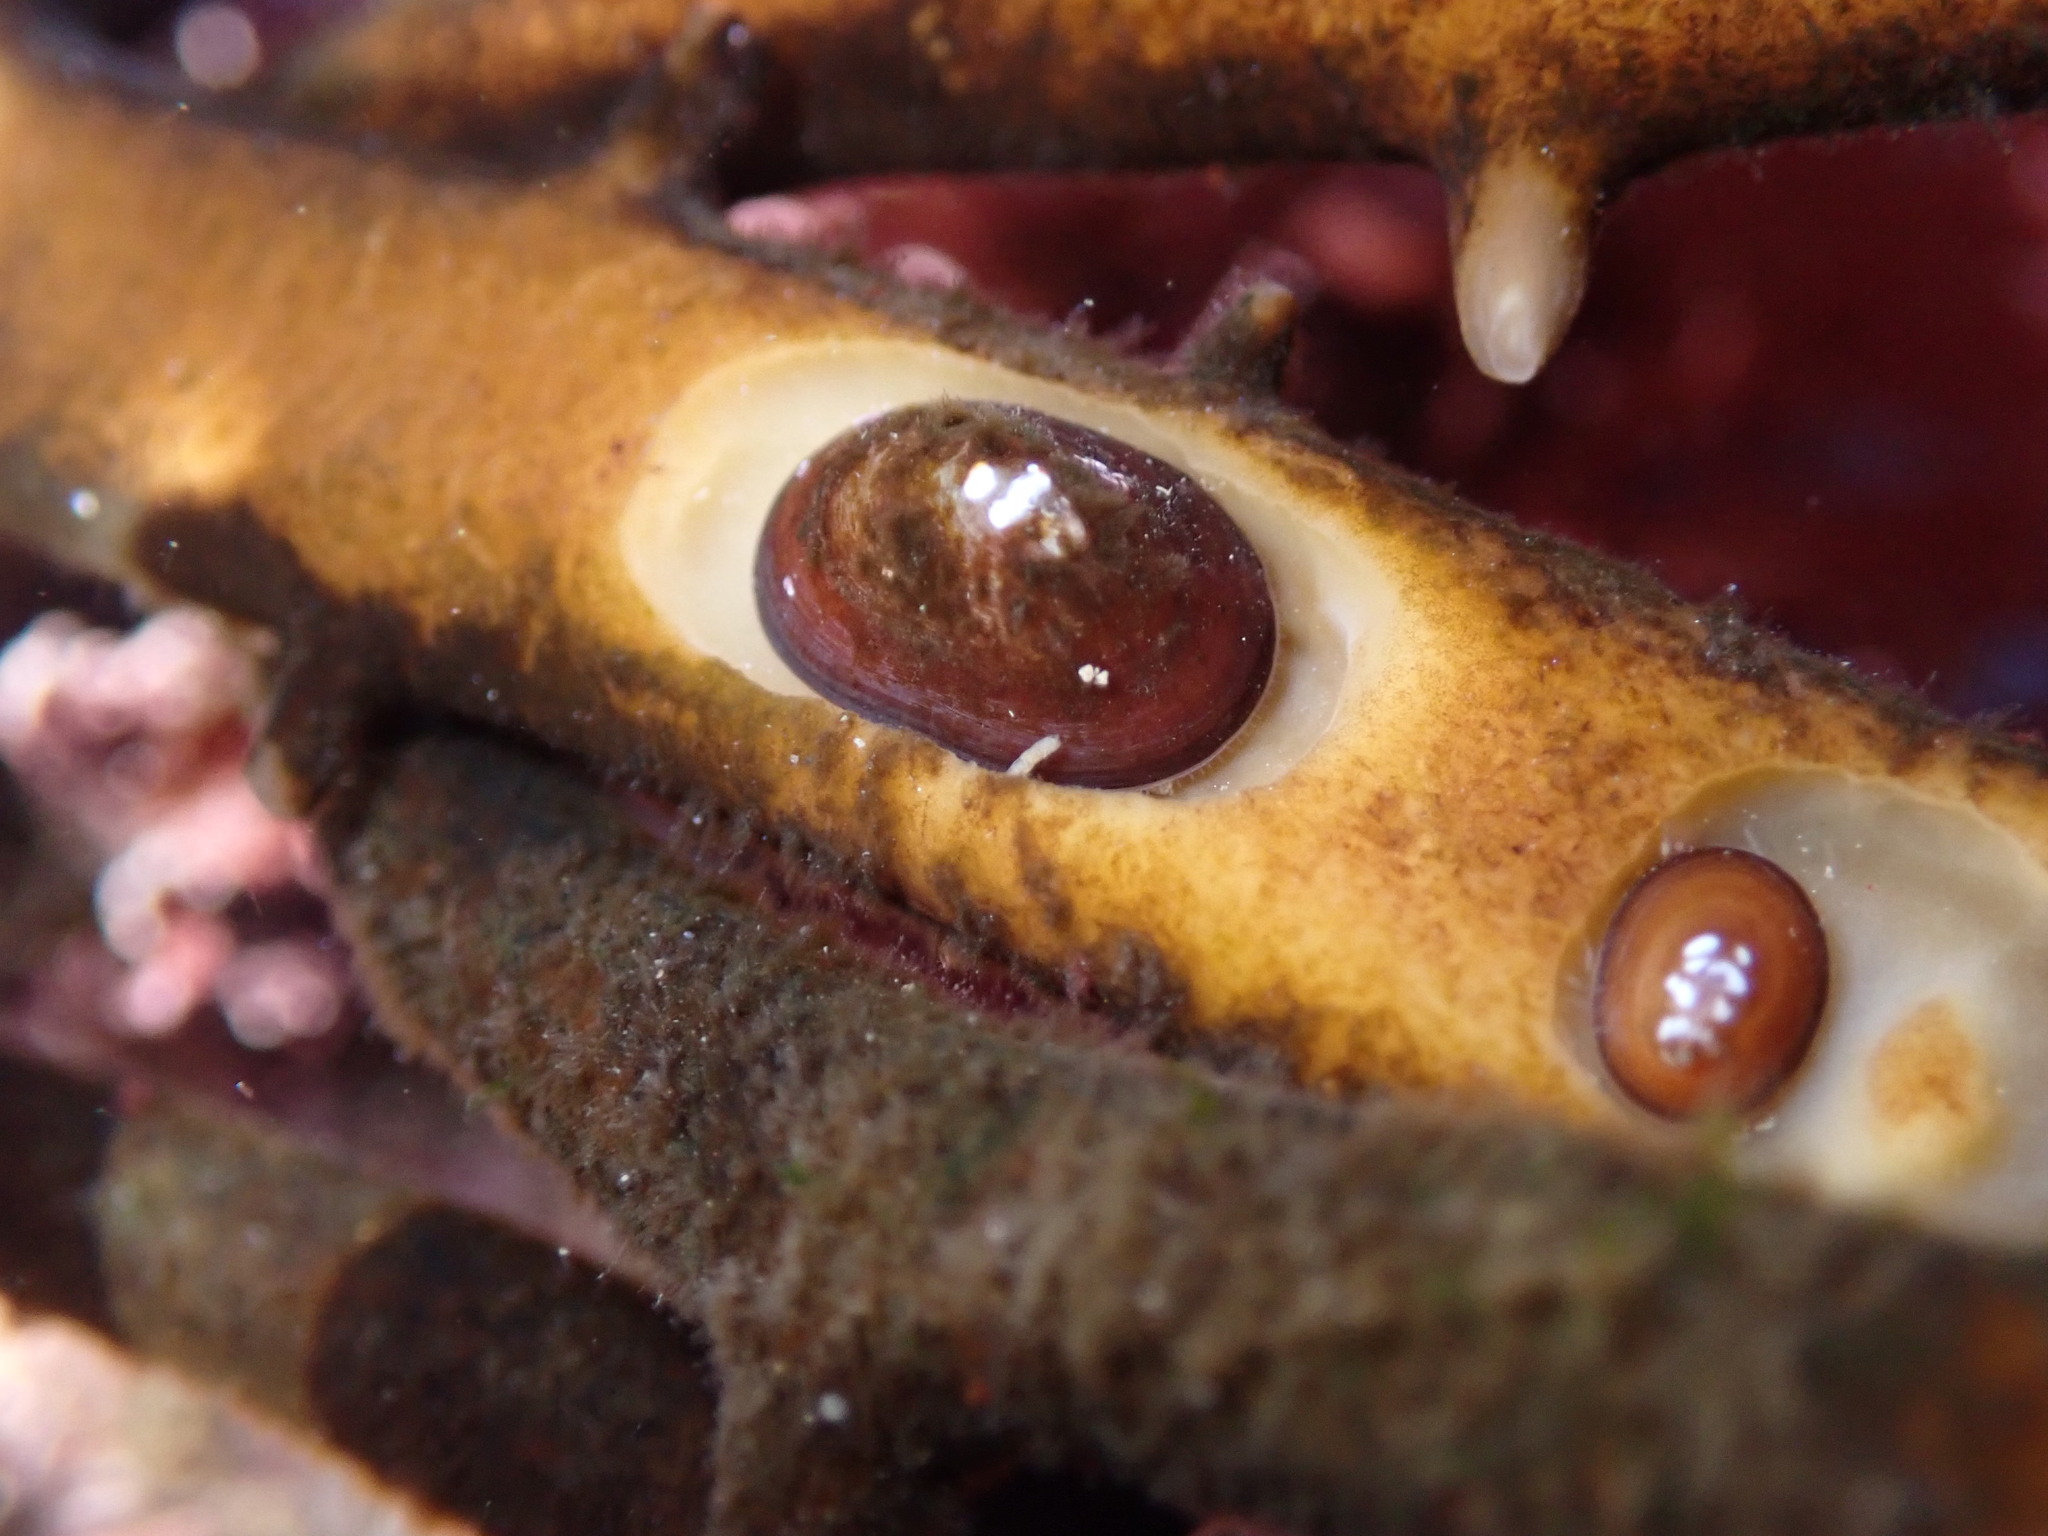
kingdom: Animalia
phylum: Mollusca
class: Gastropoda
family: Lottiidae
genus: Discurria
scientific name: Discurria insessa
